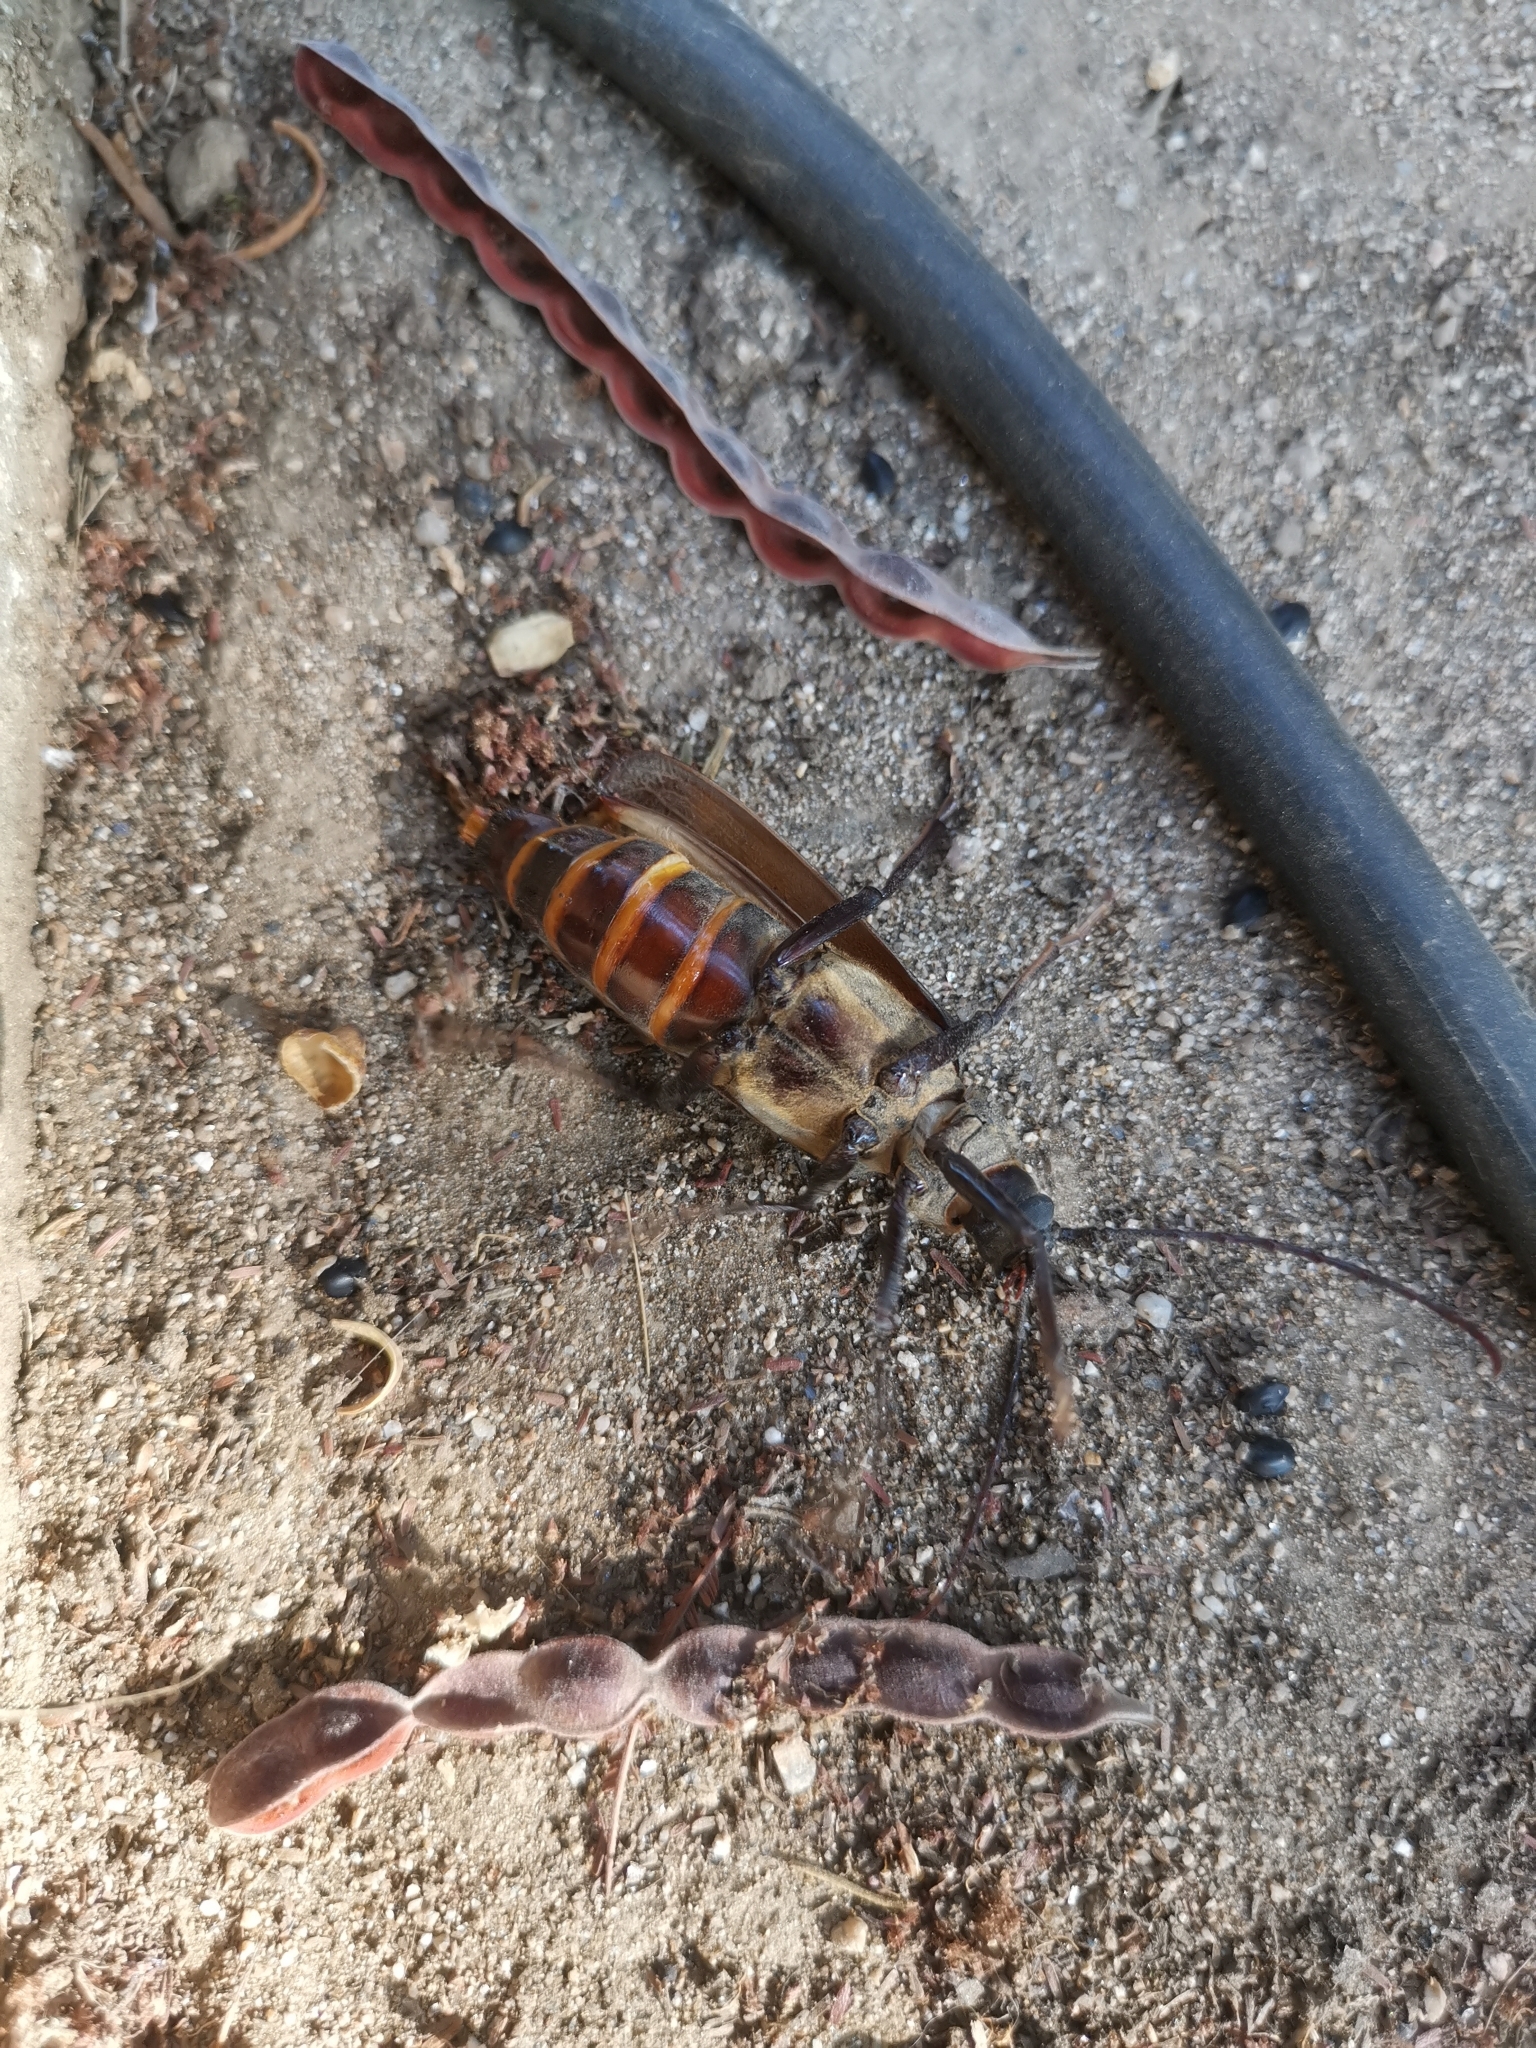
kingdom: Animalia
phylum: Arthropoda
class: Insecta
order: Coleoptera
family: Cerambycidae
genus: Prinobius
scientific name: Prinobius myardi
